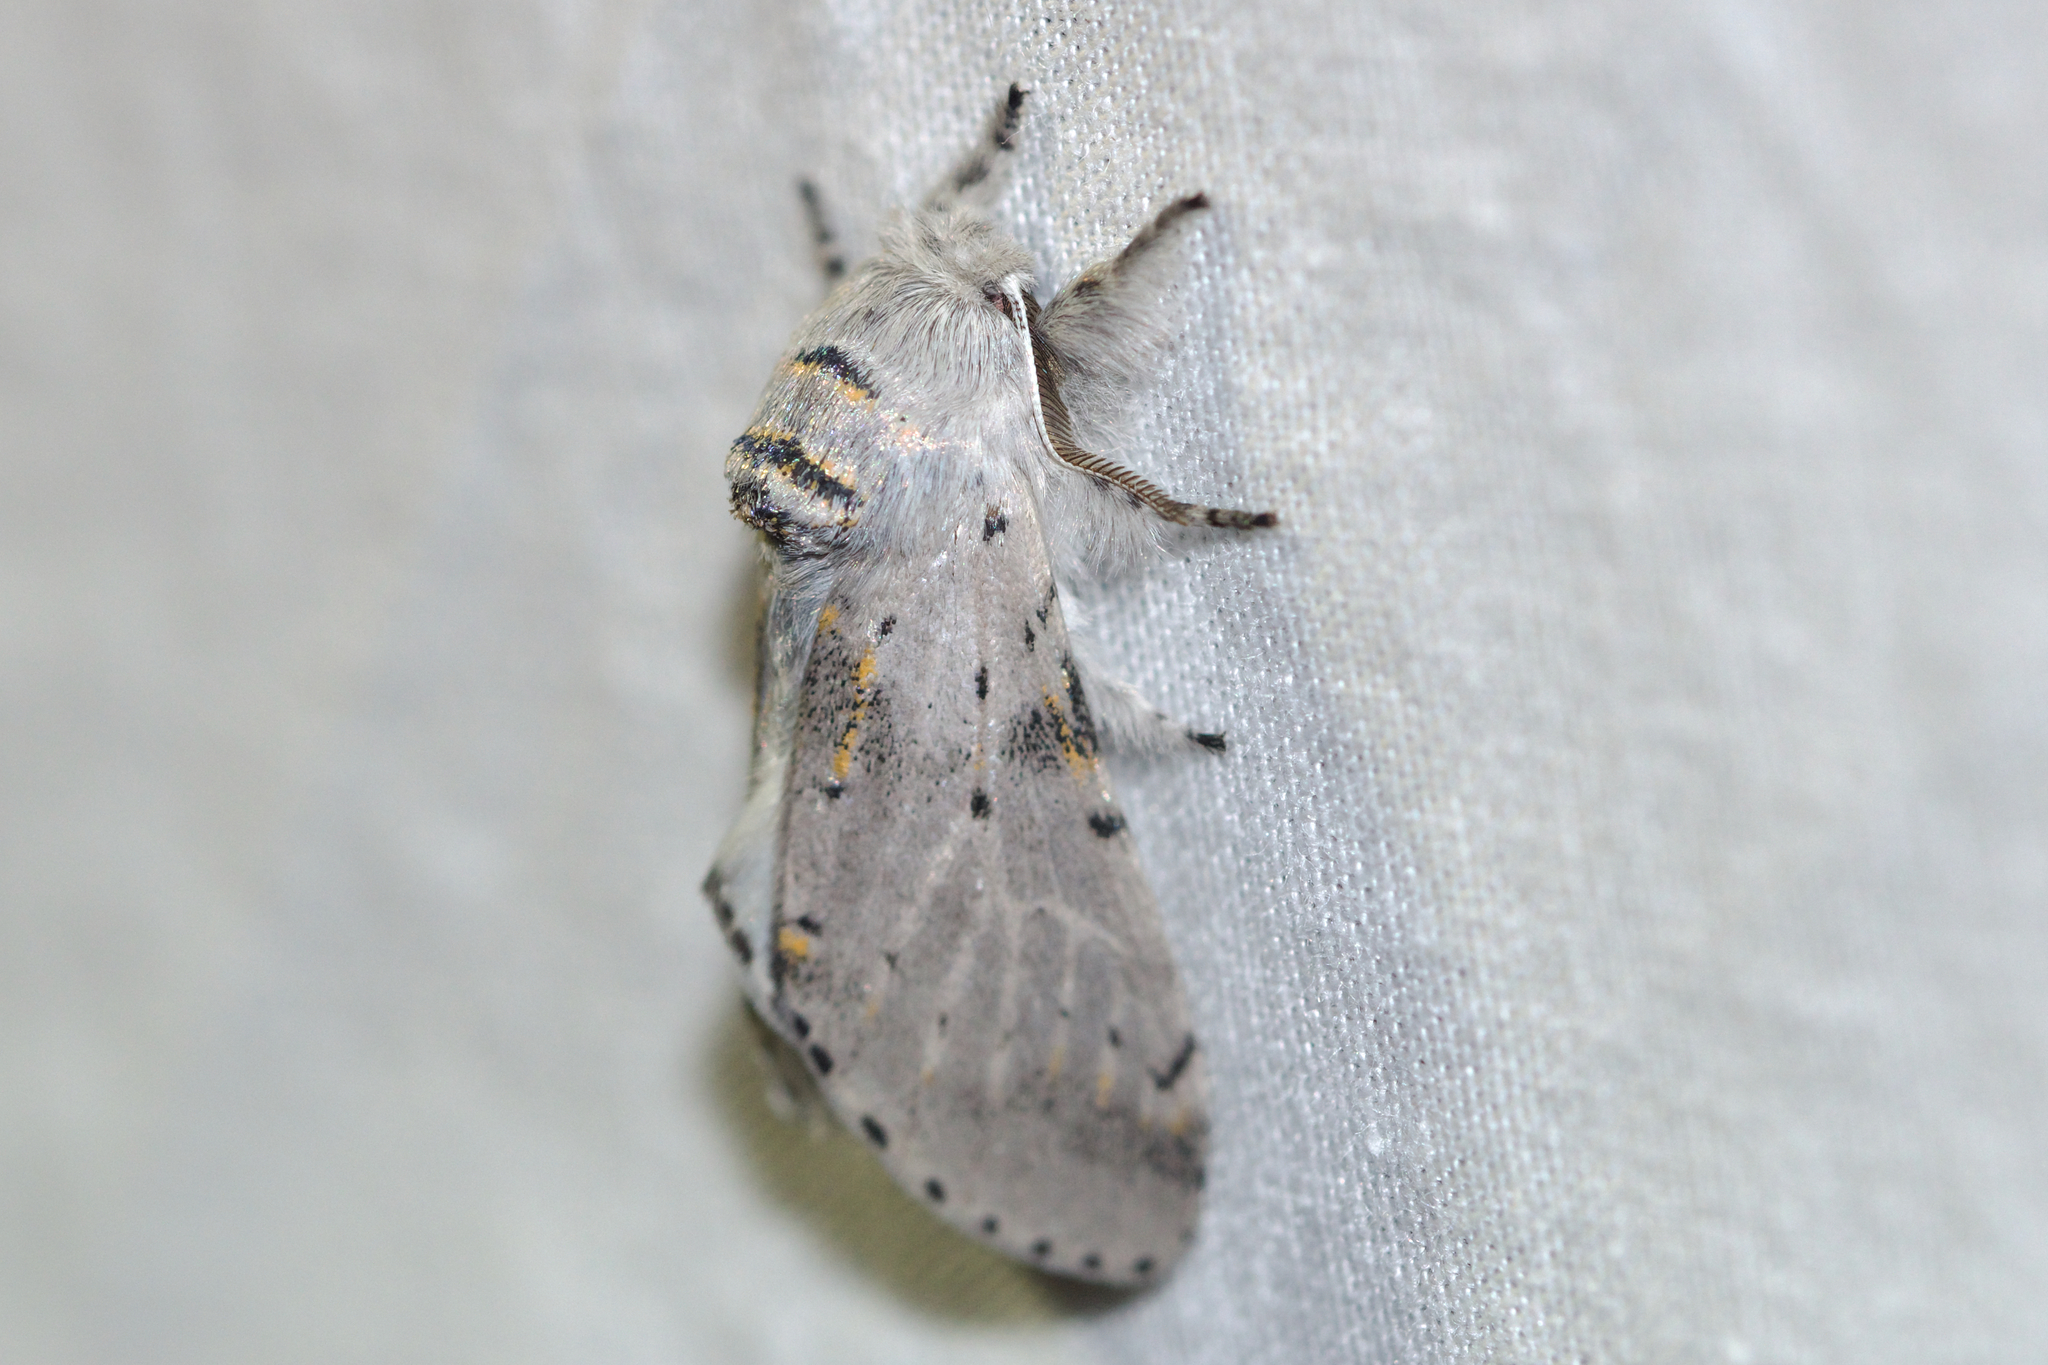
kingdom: Animalia
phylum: Arthropoda
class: Insecta
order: Lepidoptera
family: Notodontidae
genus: Furcula
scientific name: Furcula cinerea
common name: Gray furcula
